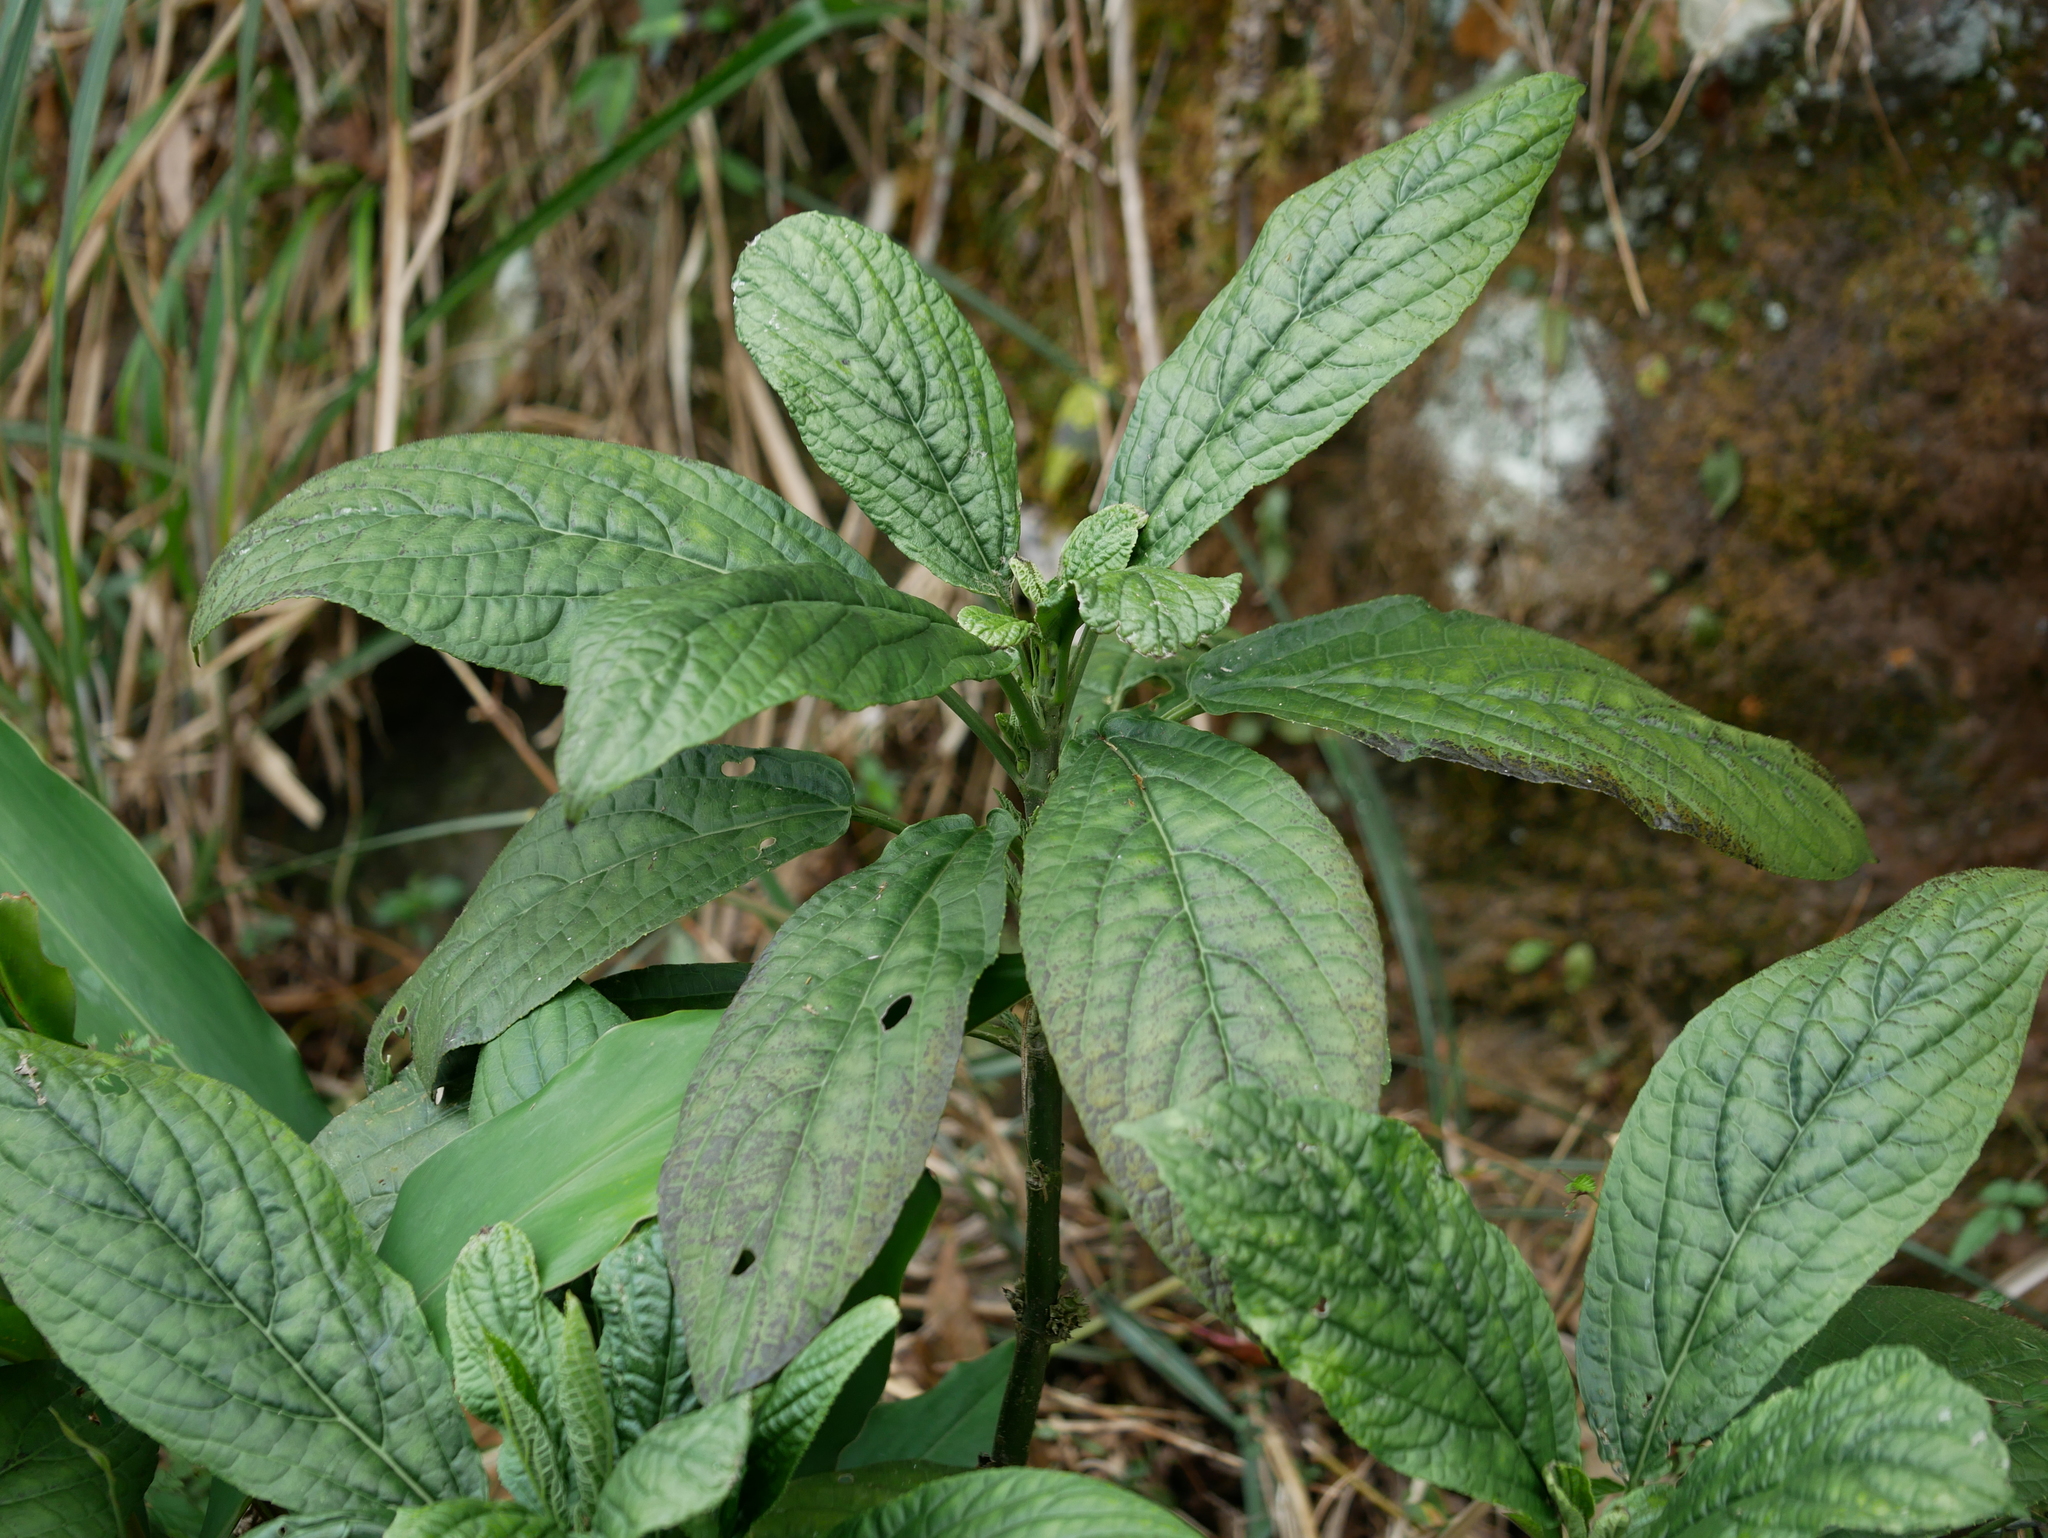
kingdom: Plantae
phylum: Tracheophyta
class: Magnoliopsida
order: Lamiales
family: Lamiaceae
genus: Paraphlomis
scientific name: Paraphlomis javanica
